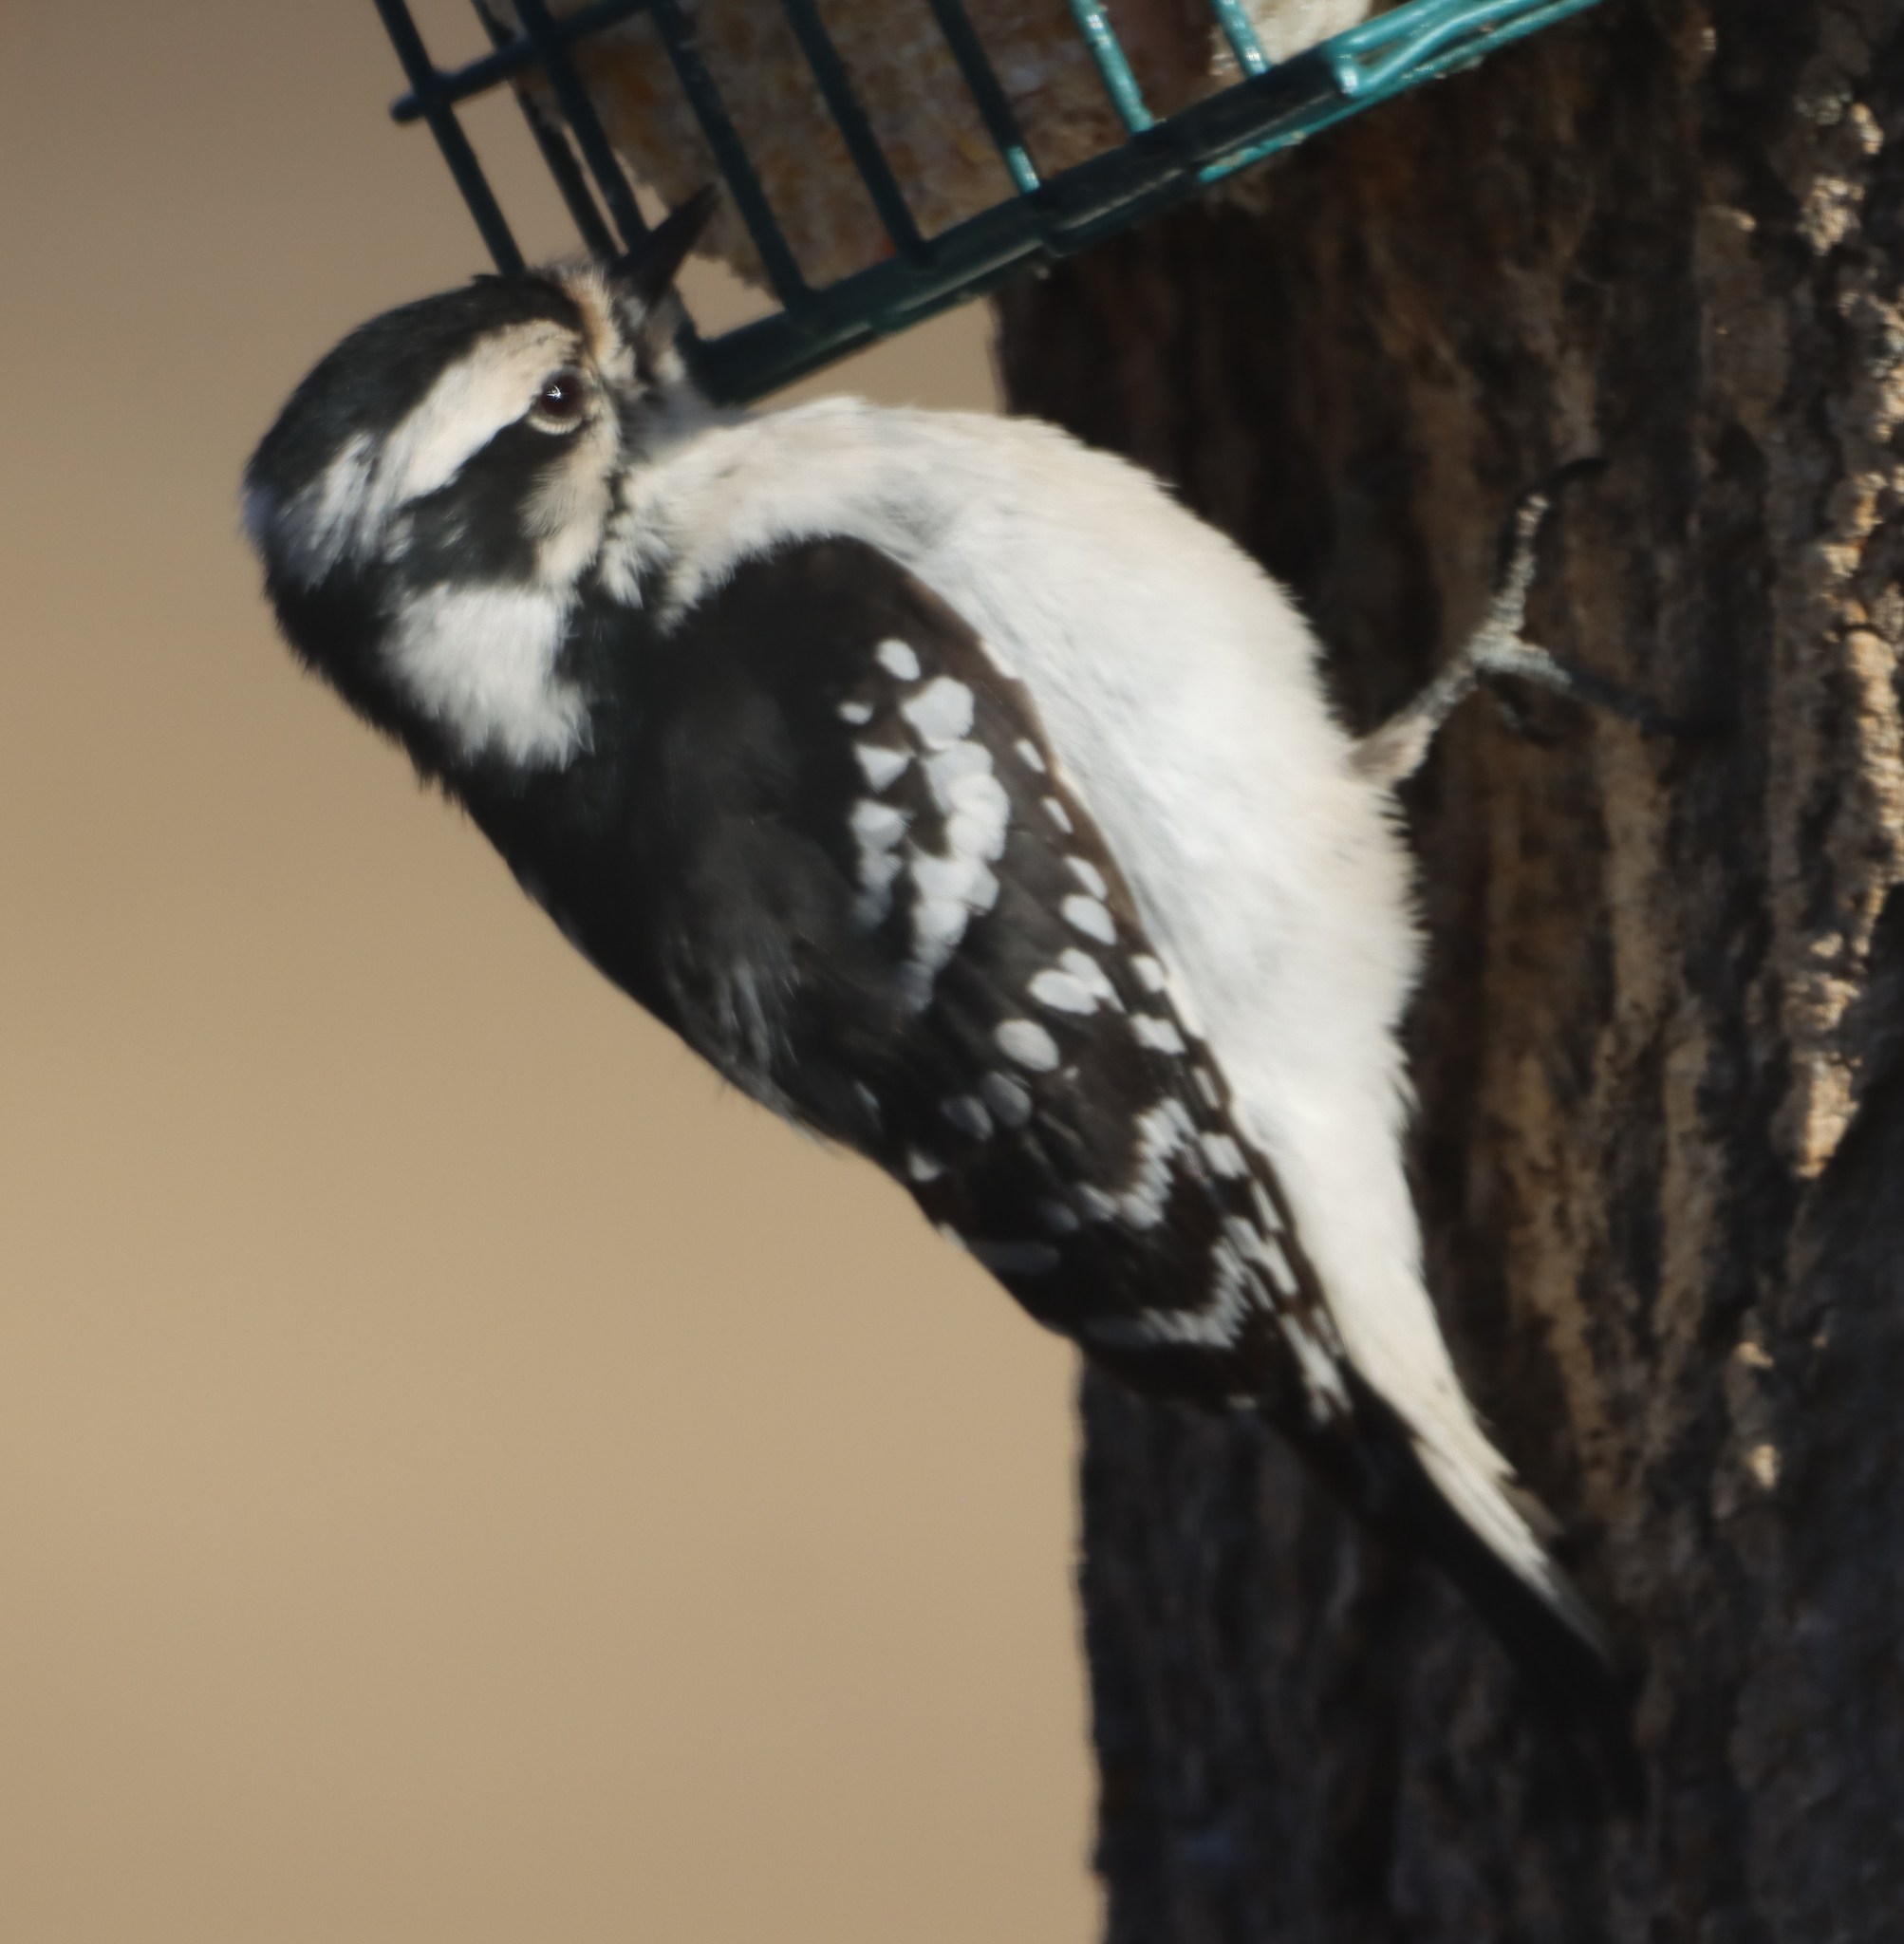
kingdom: Animalia
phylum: Chordata
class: Aves
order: Piciformes
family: Picidae
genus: Dryobates
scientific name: Dryobates pubescens
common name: Downy woodpecker
